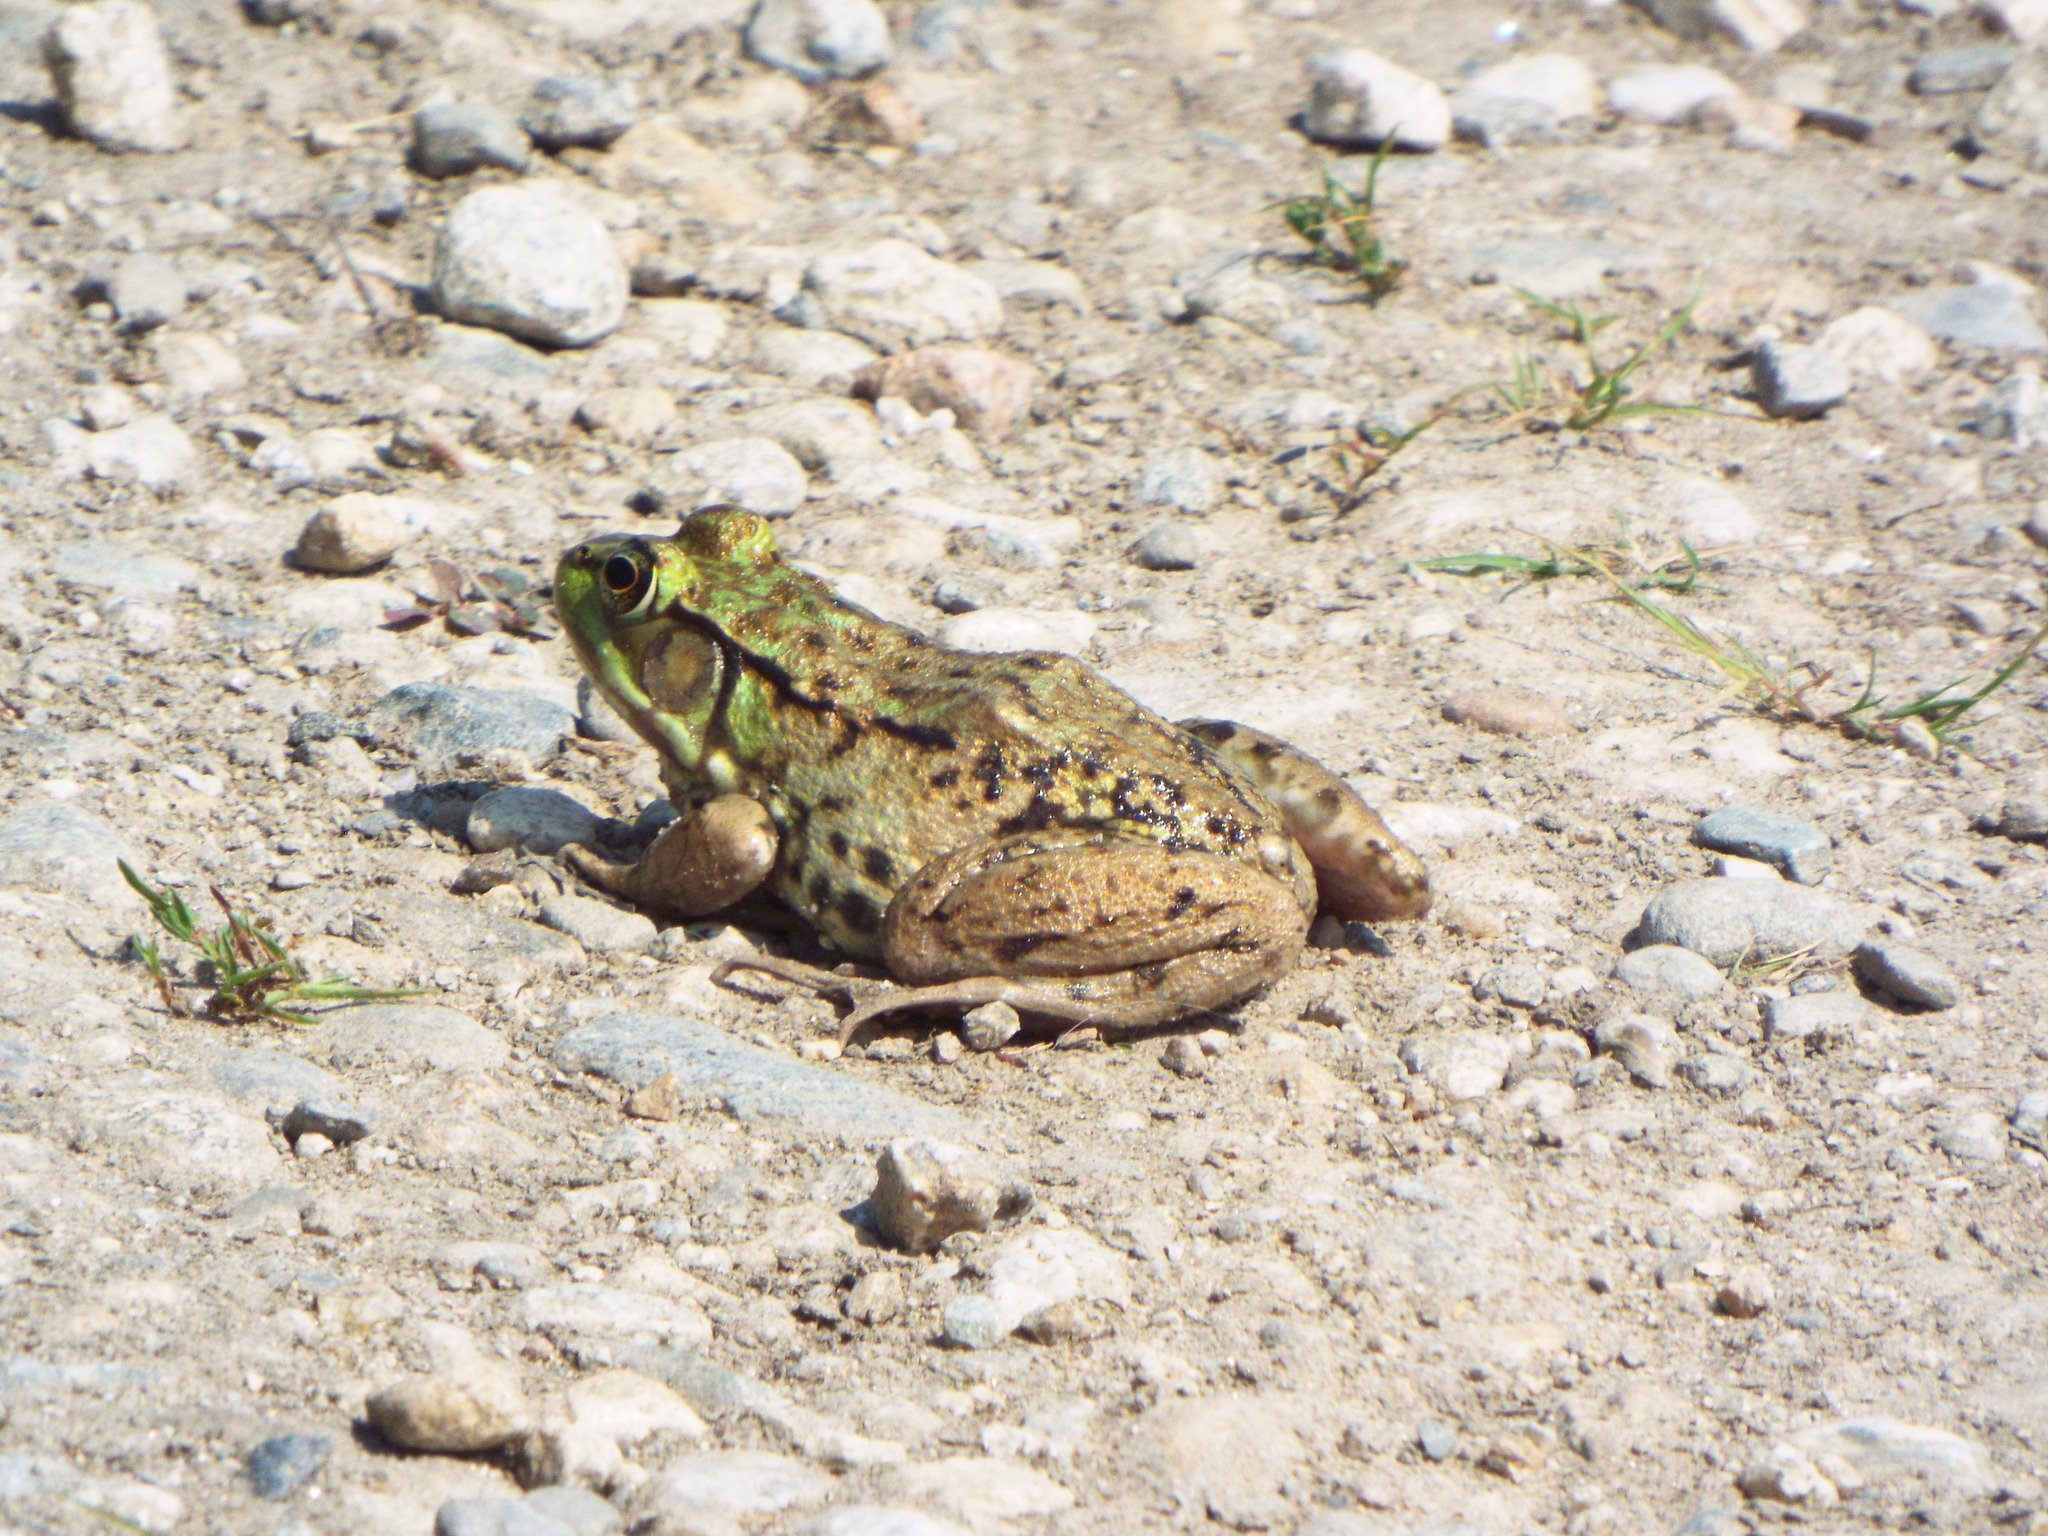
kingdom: Animalia
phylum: Chordata
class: Amphibia
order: Anura
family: Ranidae
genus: Lithobates
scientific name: Lithobates clamitans
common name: Green frog
